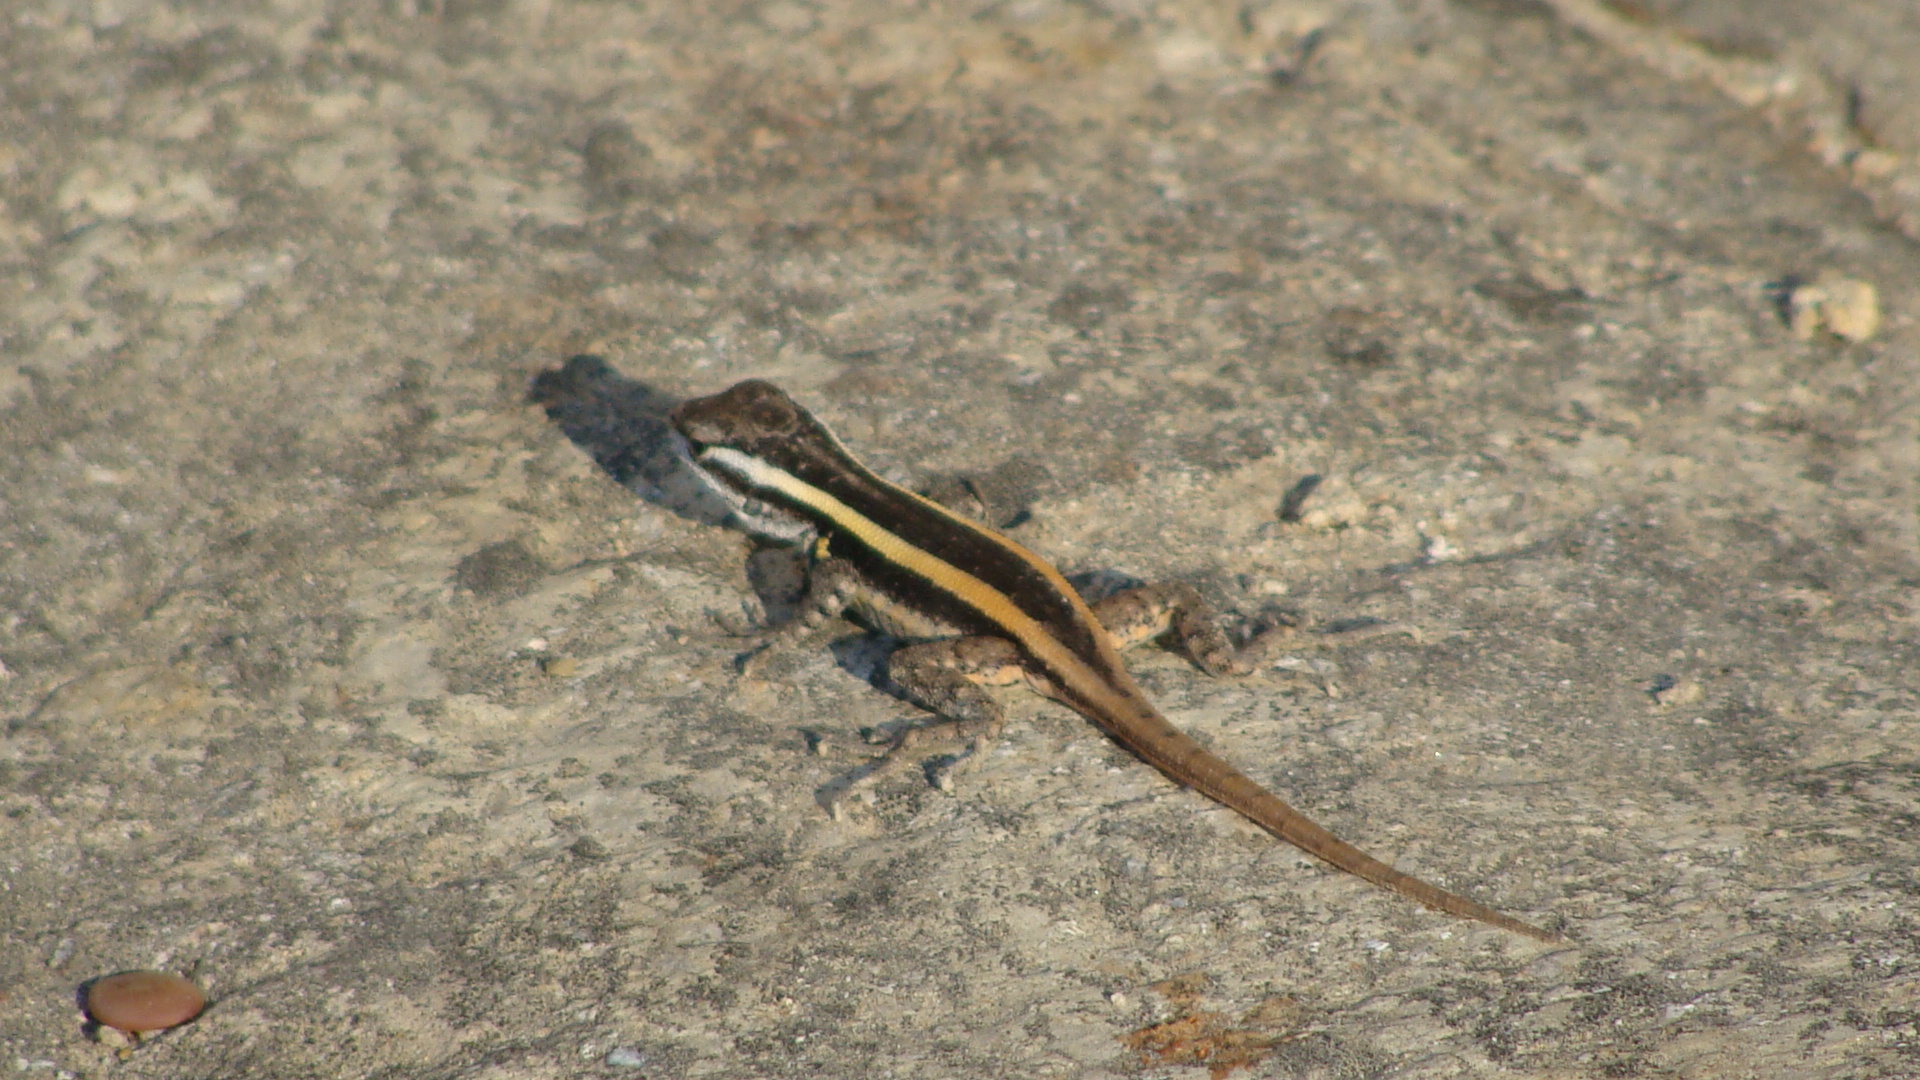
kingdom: Animalia
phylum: Chordata
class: Squamata
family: Phrynosomatidae
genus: Sceloporus
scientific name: Sceloporus smithi
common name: Smith's rosebelly lizard
